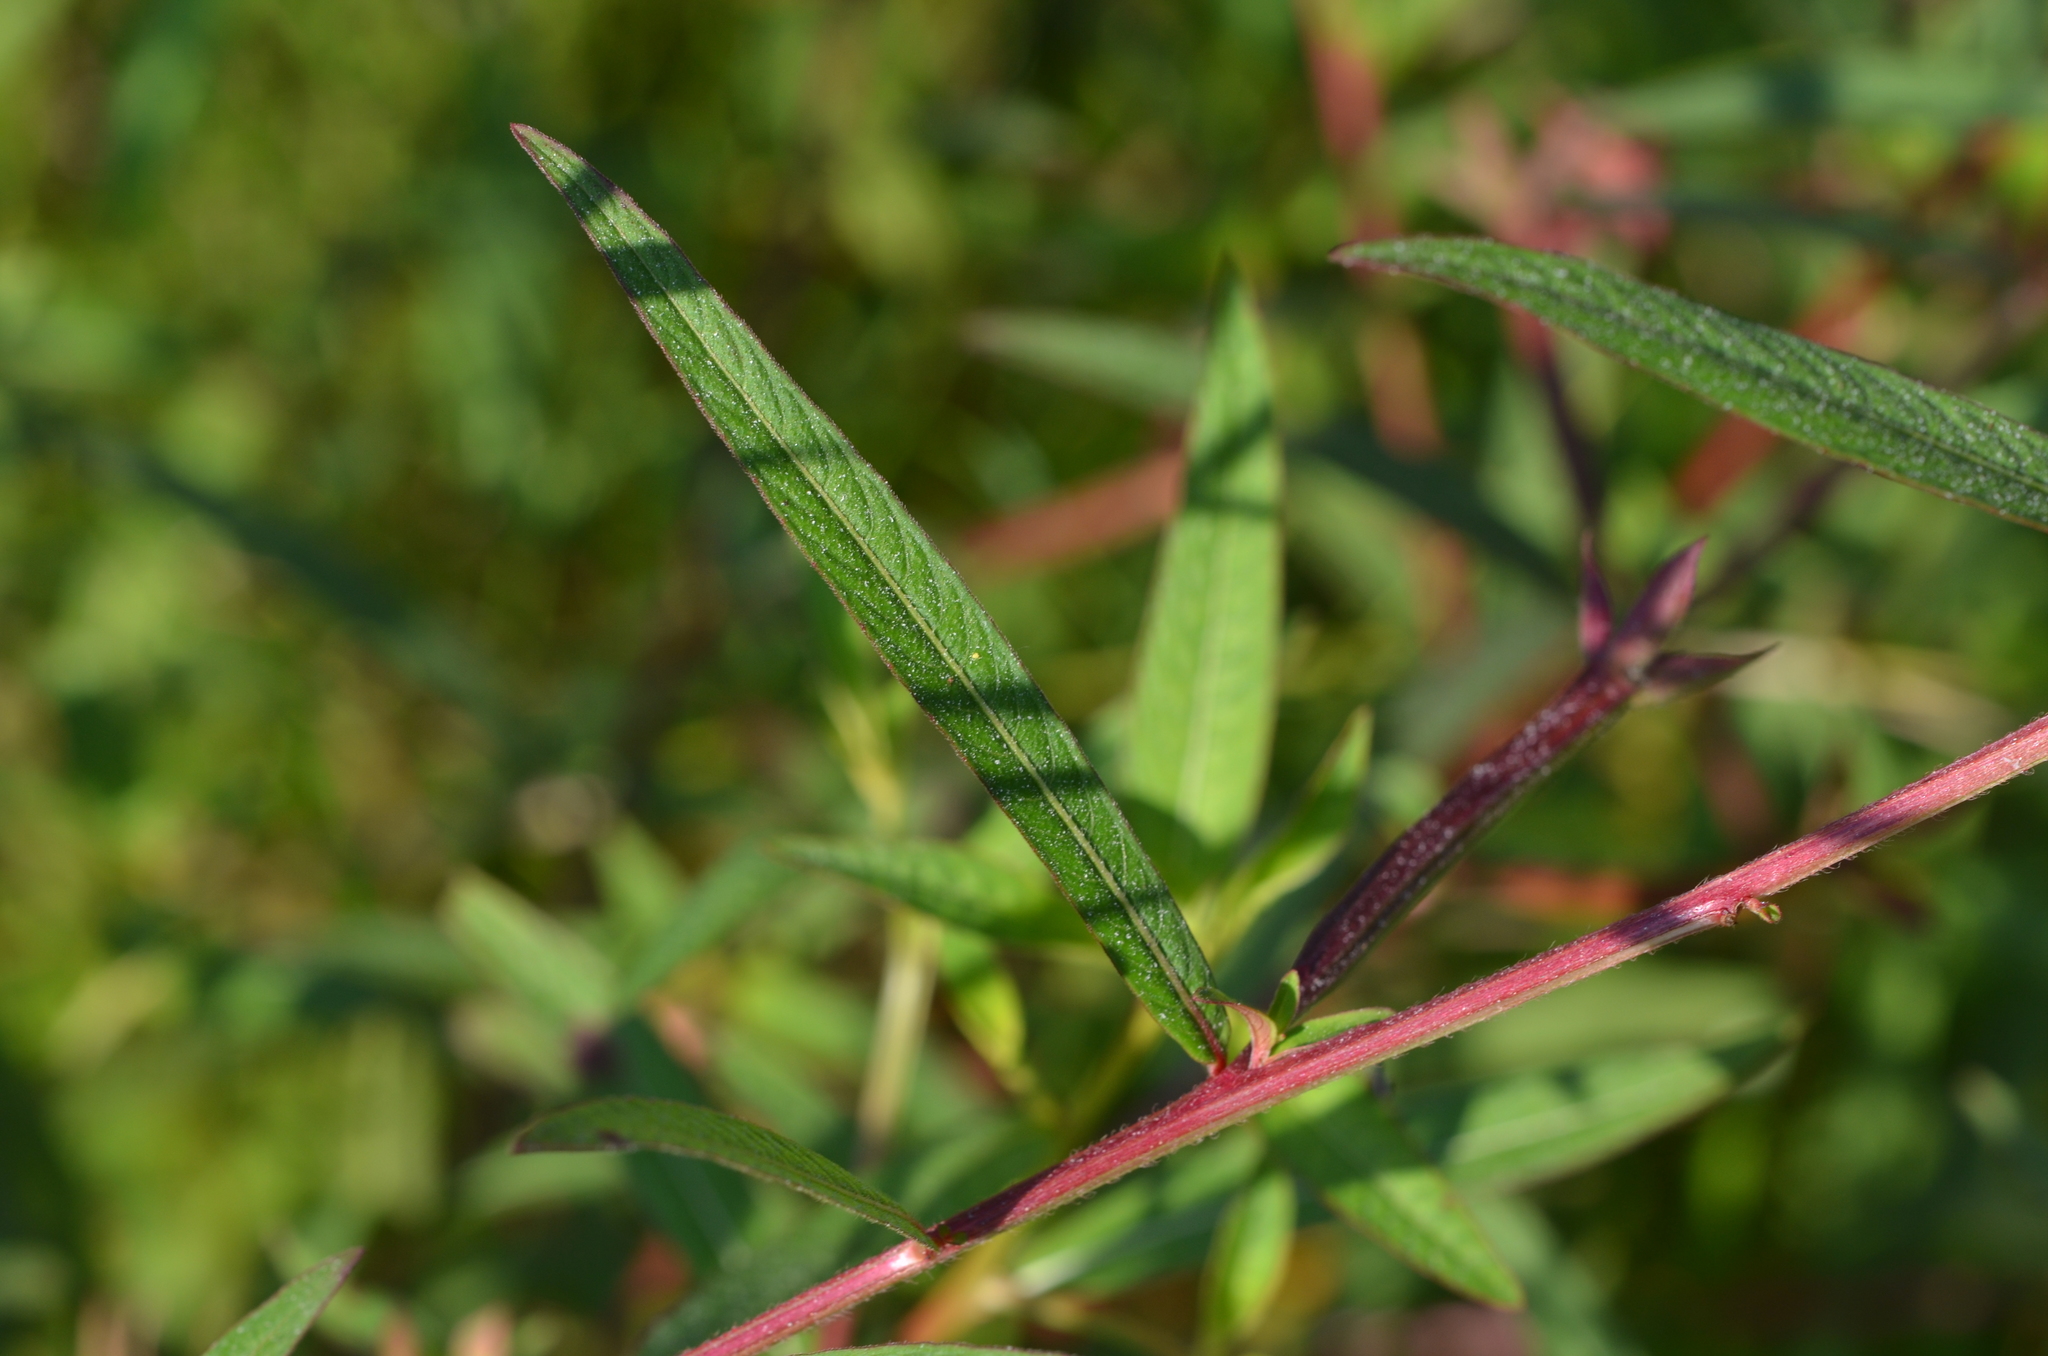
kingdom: Plantae
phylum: Tracheophyta
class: Magnoliopsida
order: Myrtales
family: Onagraceae
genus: Ludwigia
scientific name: Ludwigia octovalvis
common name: Water-primrose
